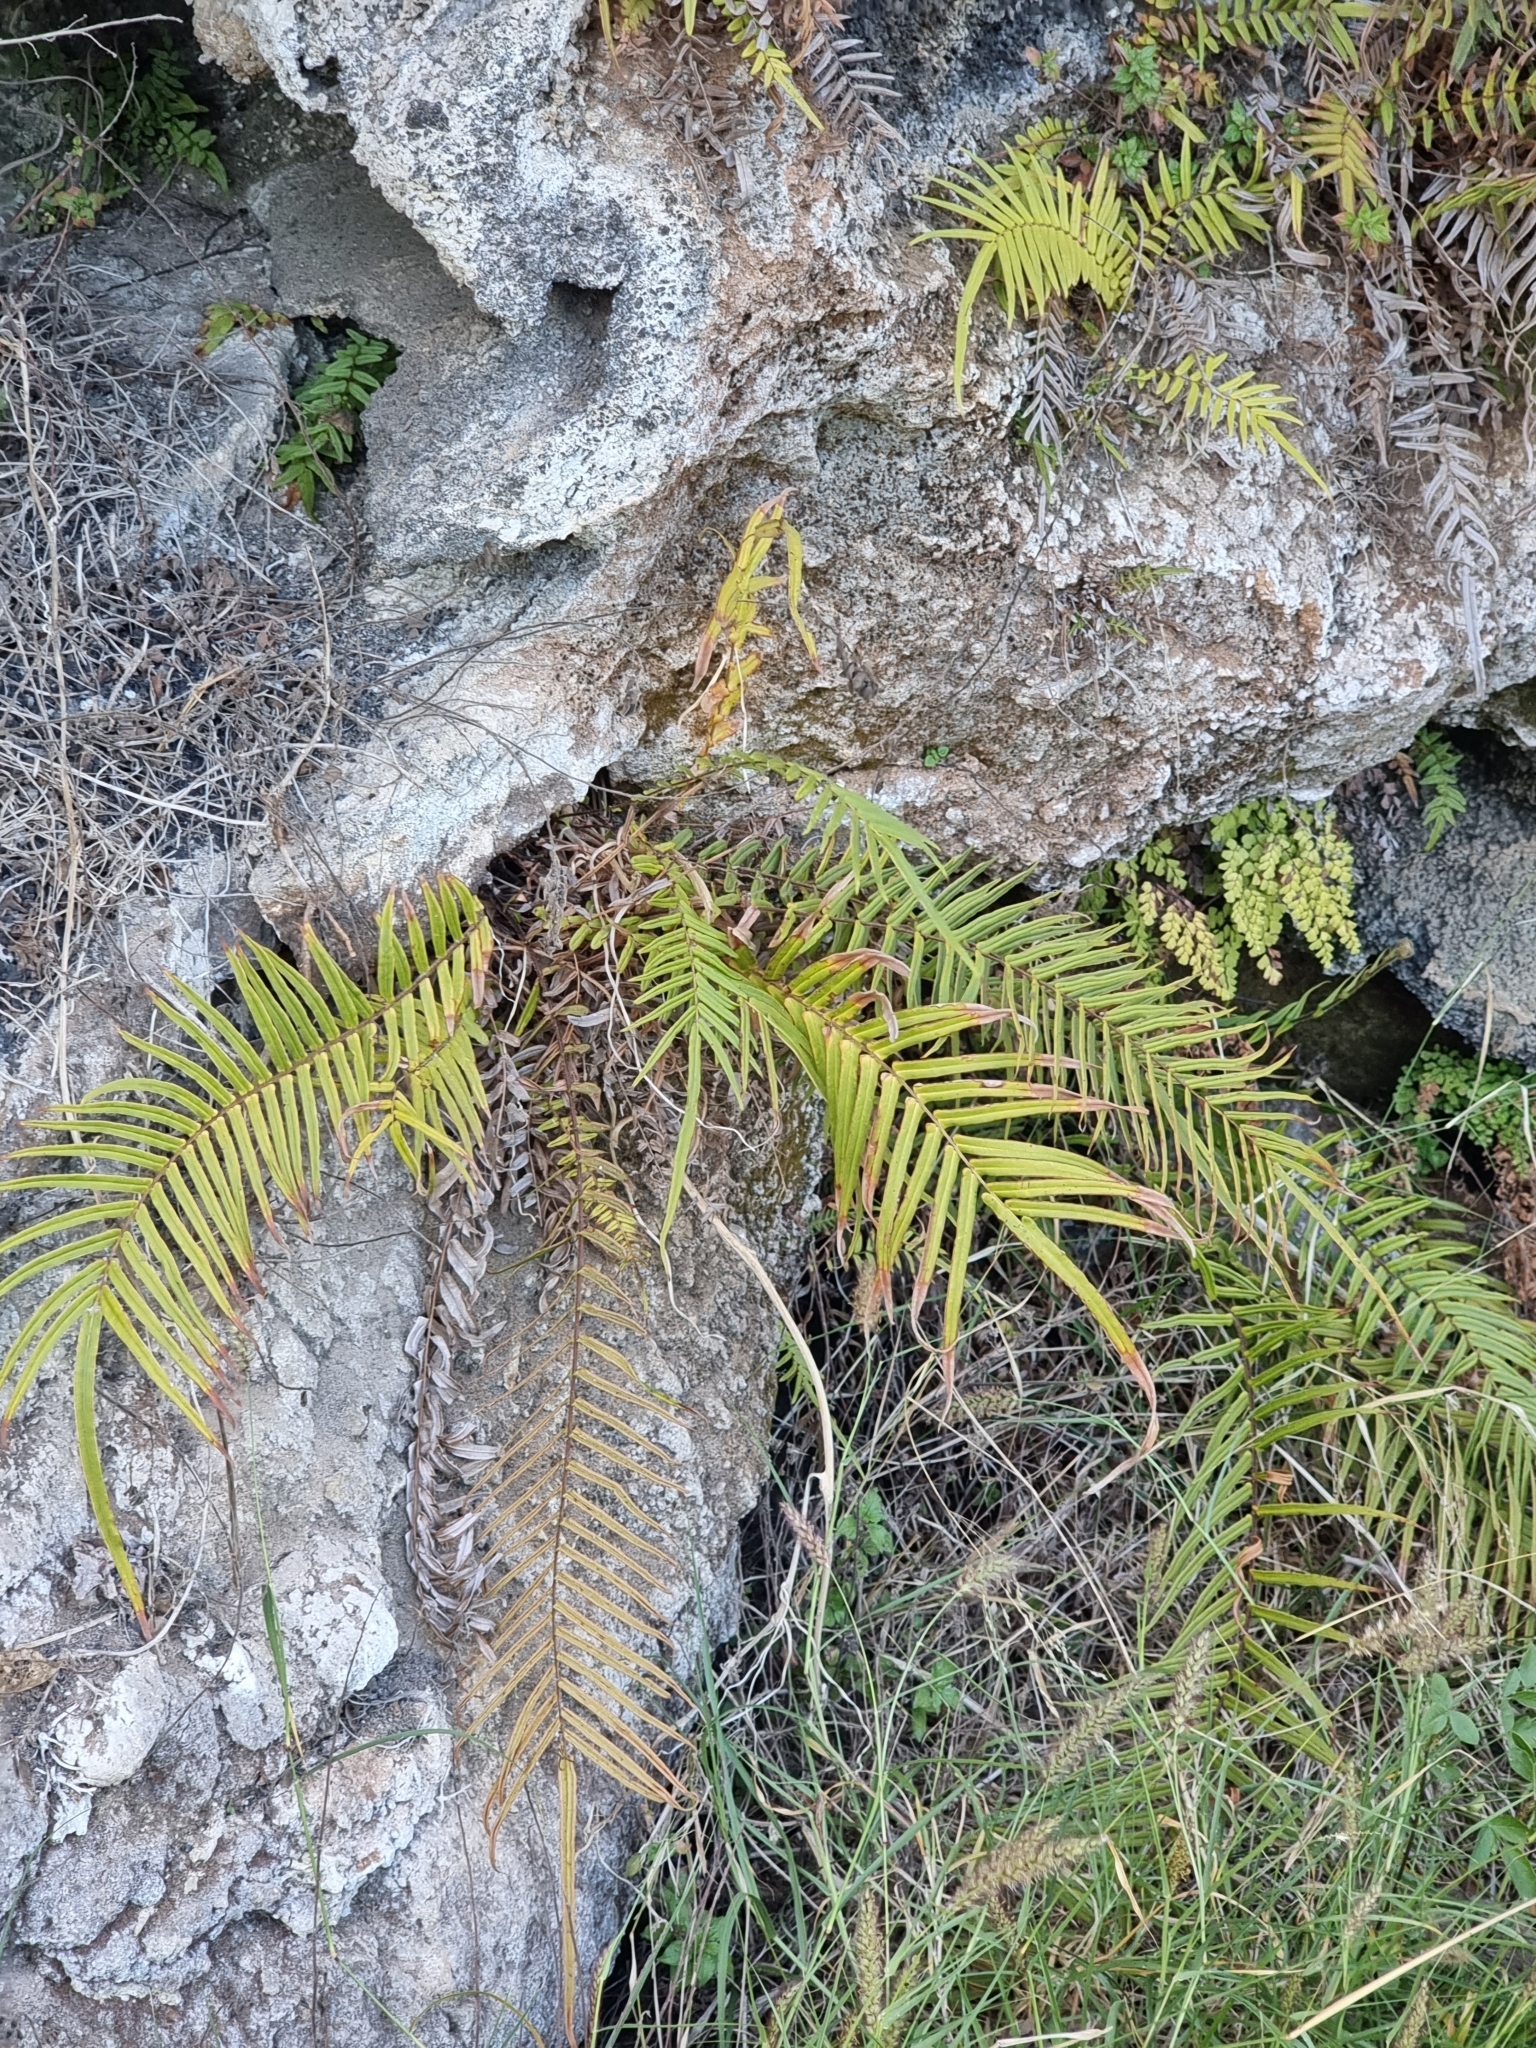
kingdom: Plantae
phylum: Tracheophyta
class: Polypodiopsida
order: Polypodiales
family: Pteridaceae
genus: Pteris
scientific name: Pteris vittata
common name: Ladder brake
